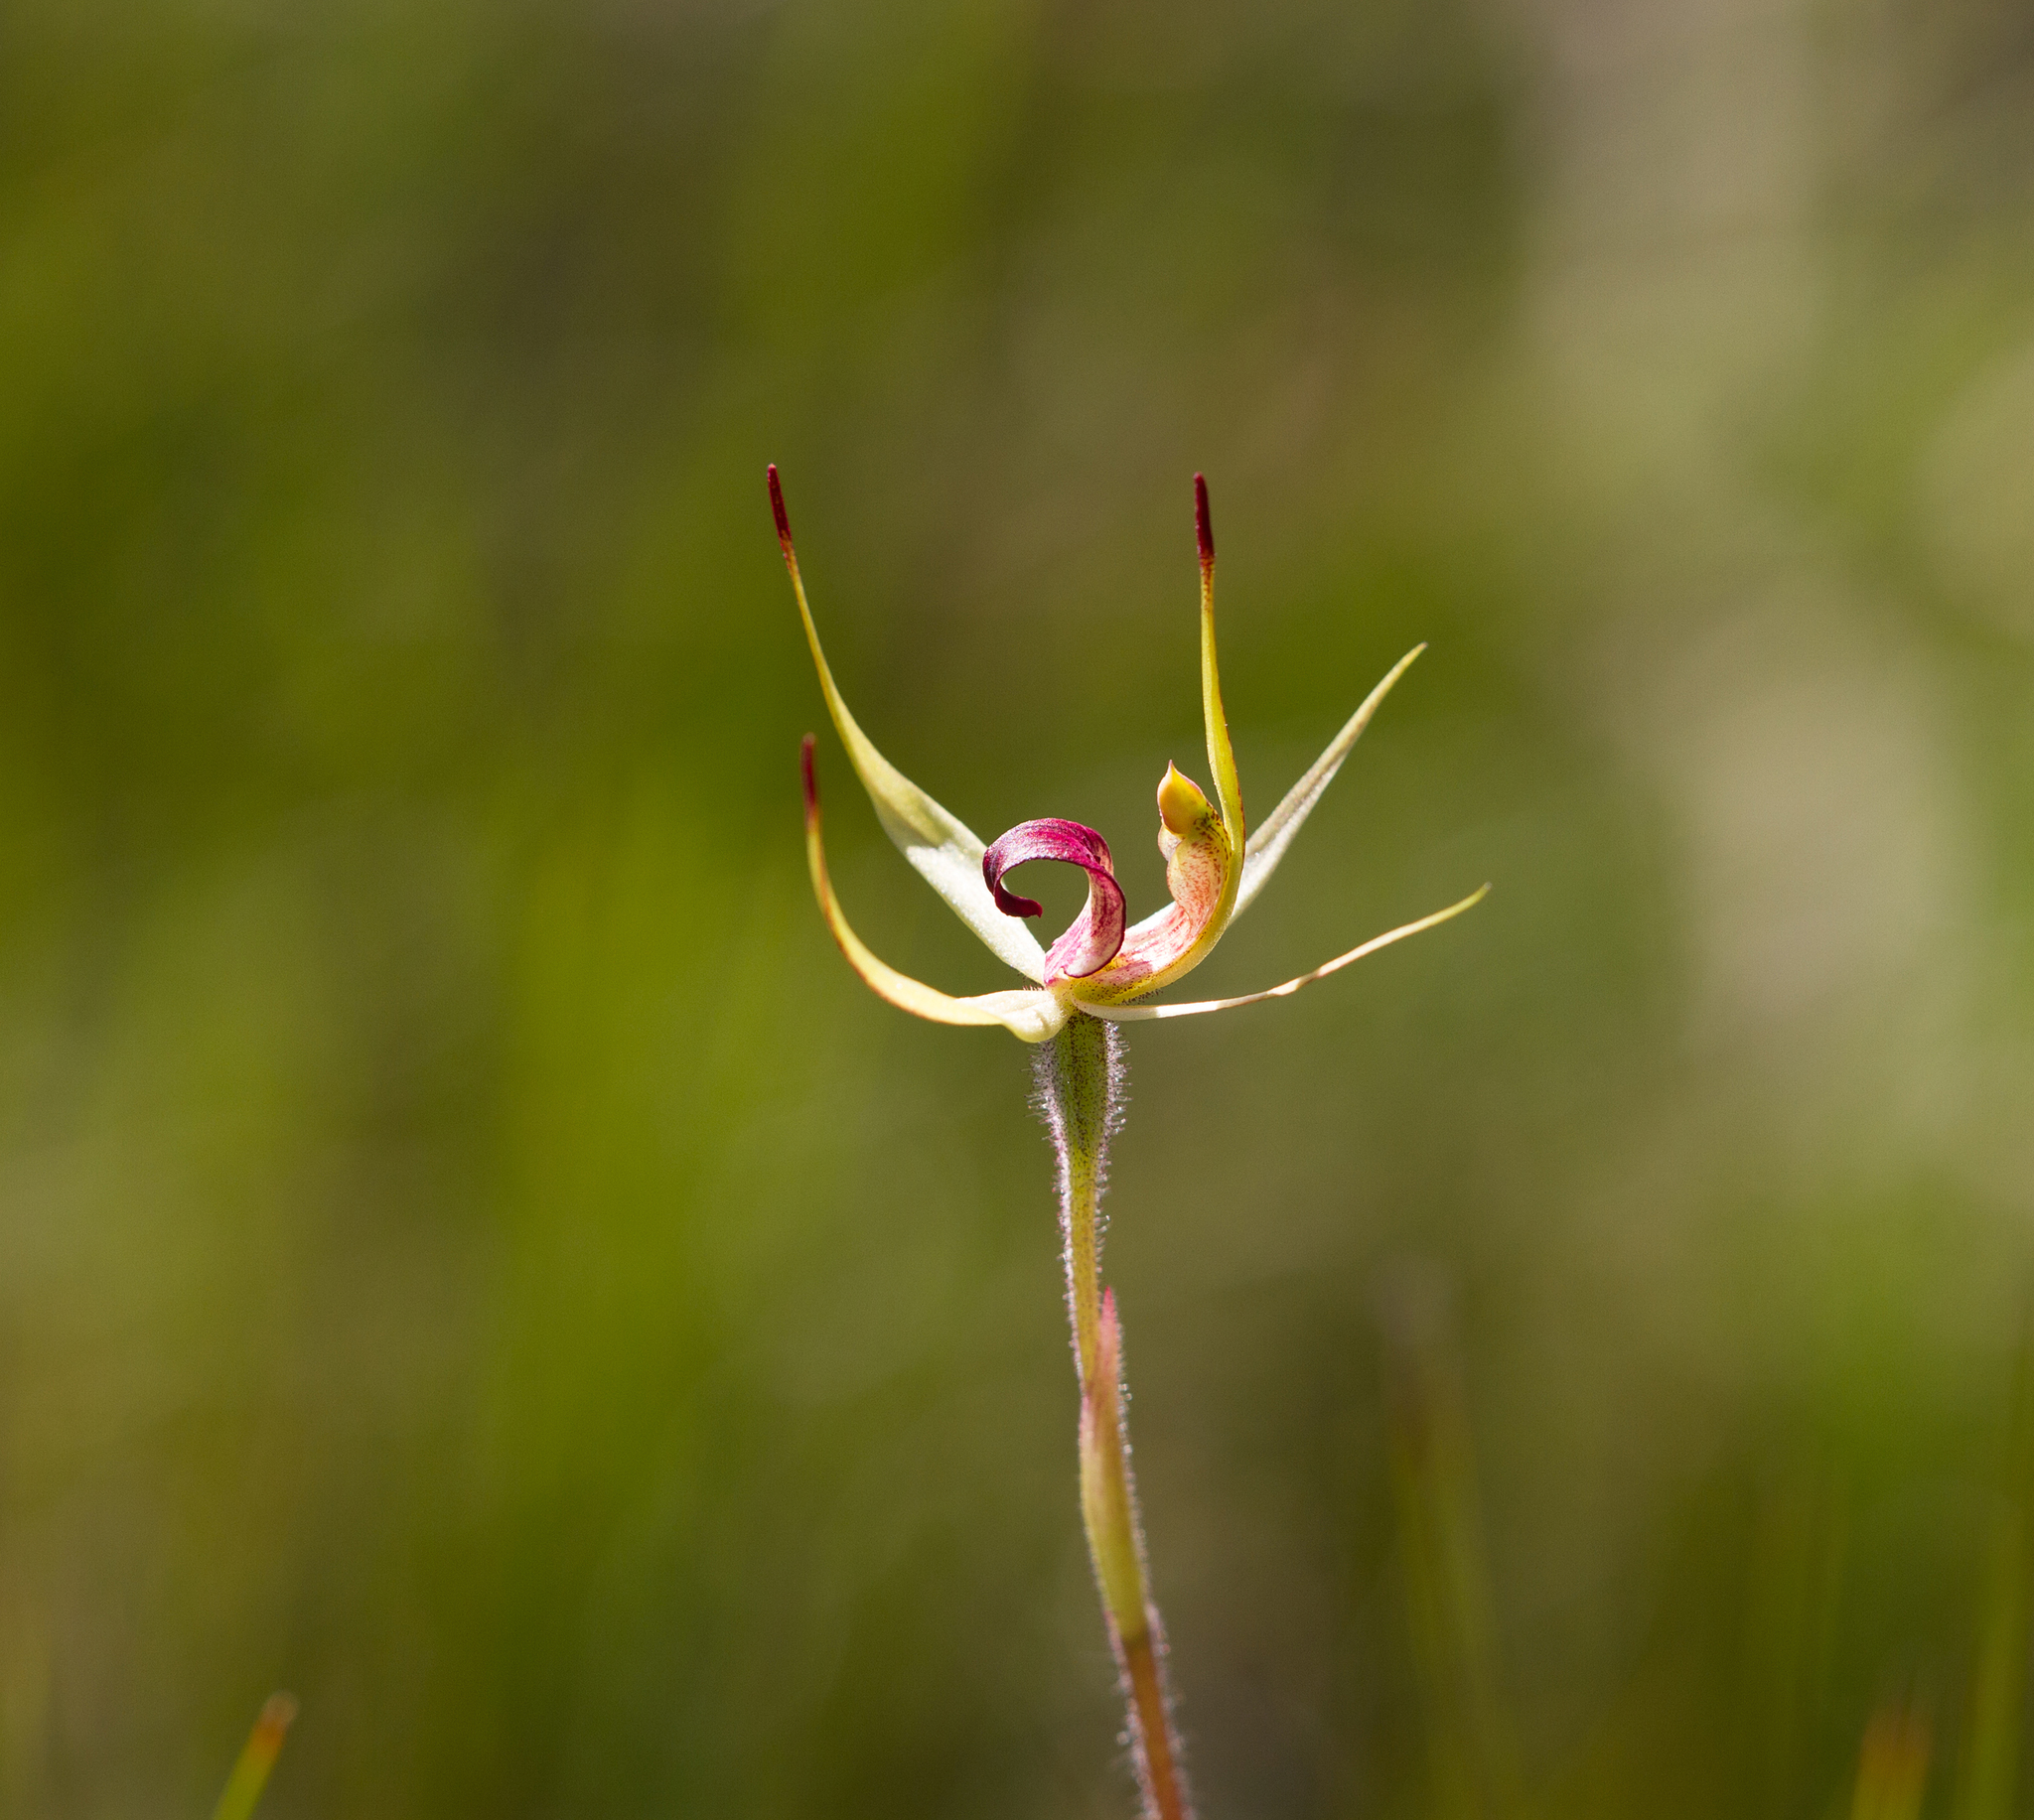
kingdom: Plantae
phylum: Tracheophyta
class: Liliopsida
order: Asparagales
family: Orchidaceae
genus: Caladenia
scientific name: Caladenia leptochila
